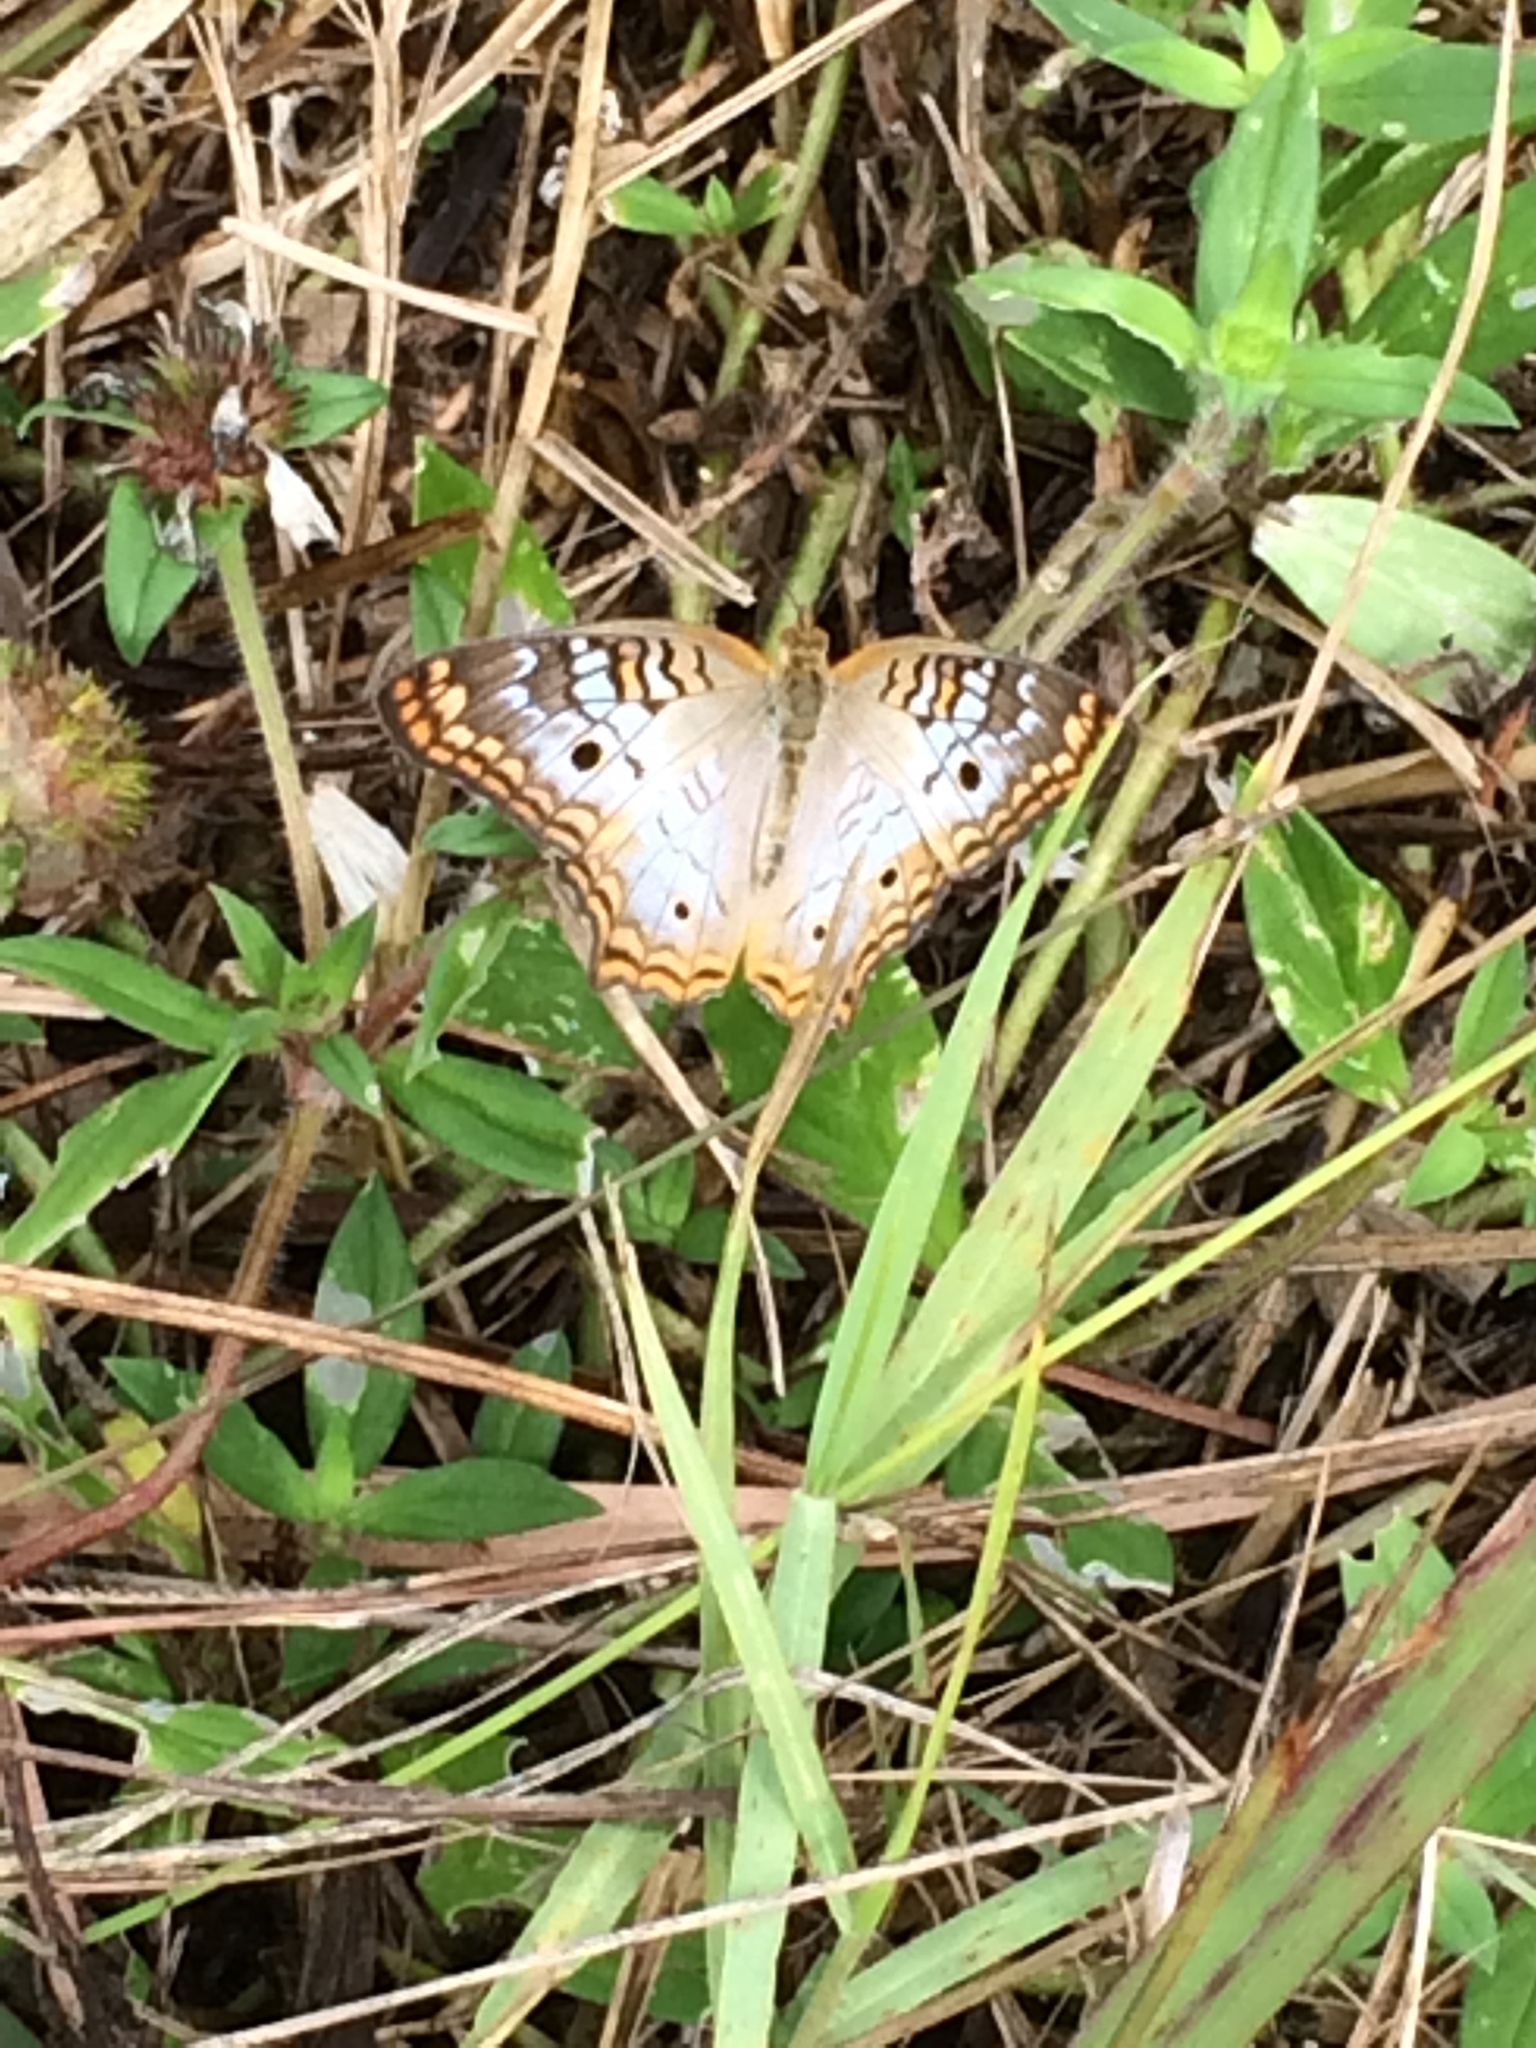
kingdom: Animalia
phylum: Arthropoda
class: Insecta
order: Lepidoptera
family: Nymphalidae
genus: Anartia
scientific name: Anartia jatrophae
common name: White peacock
